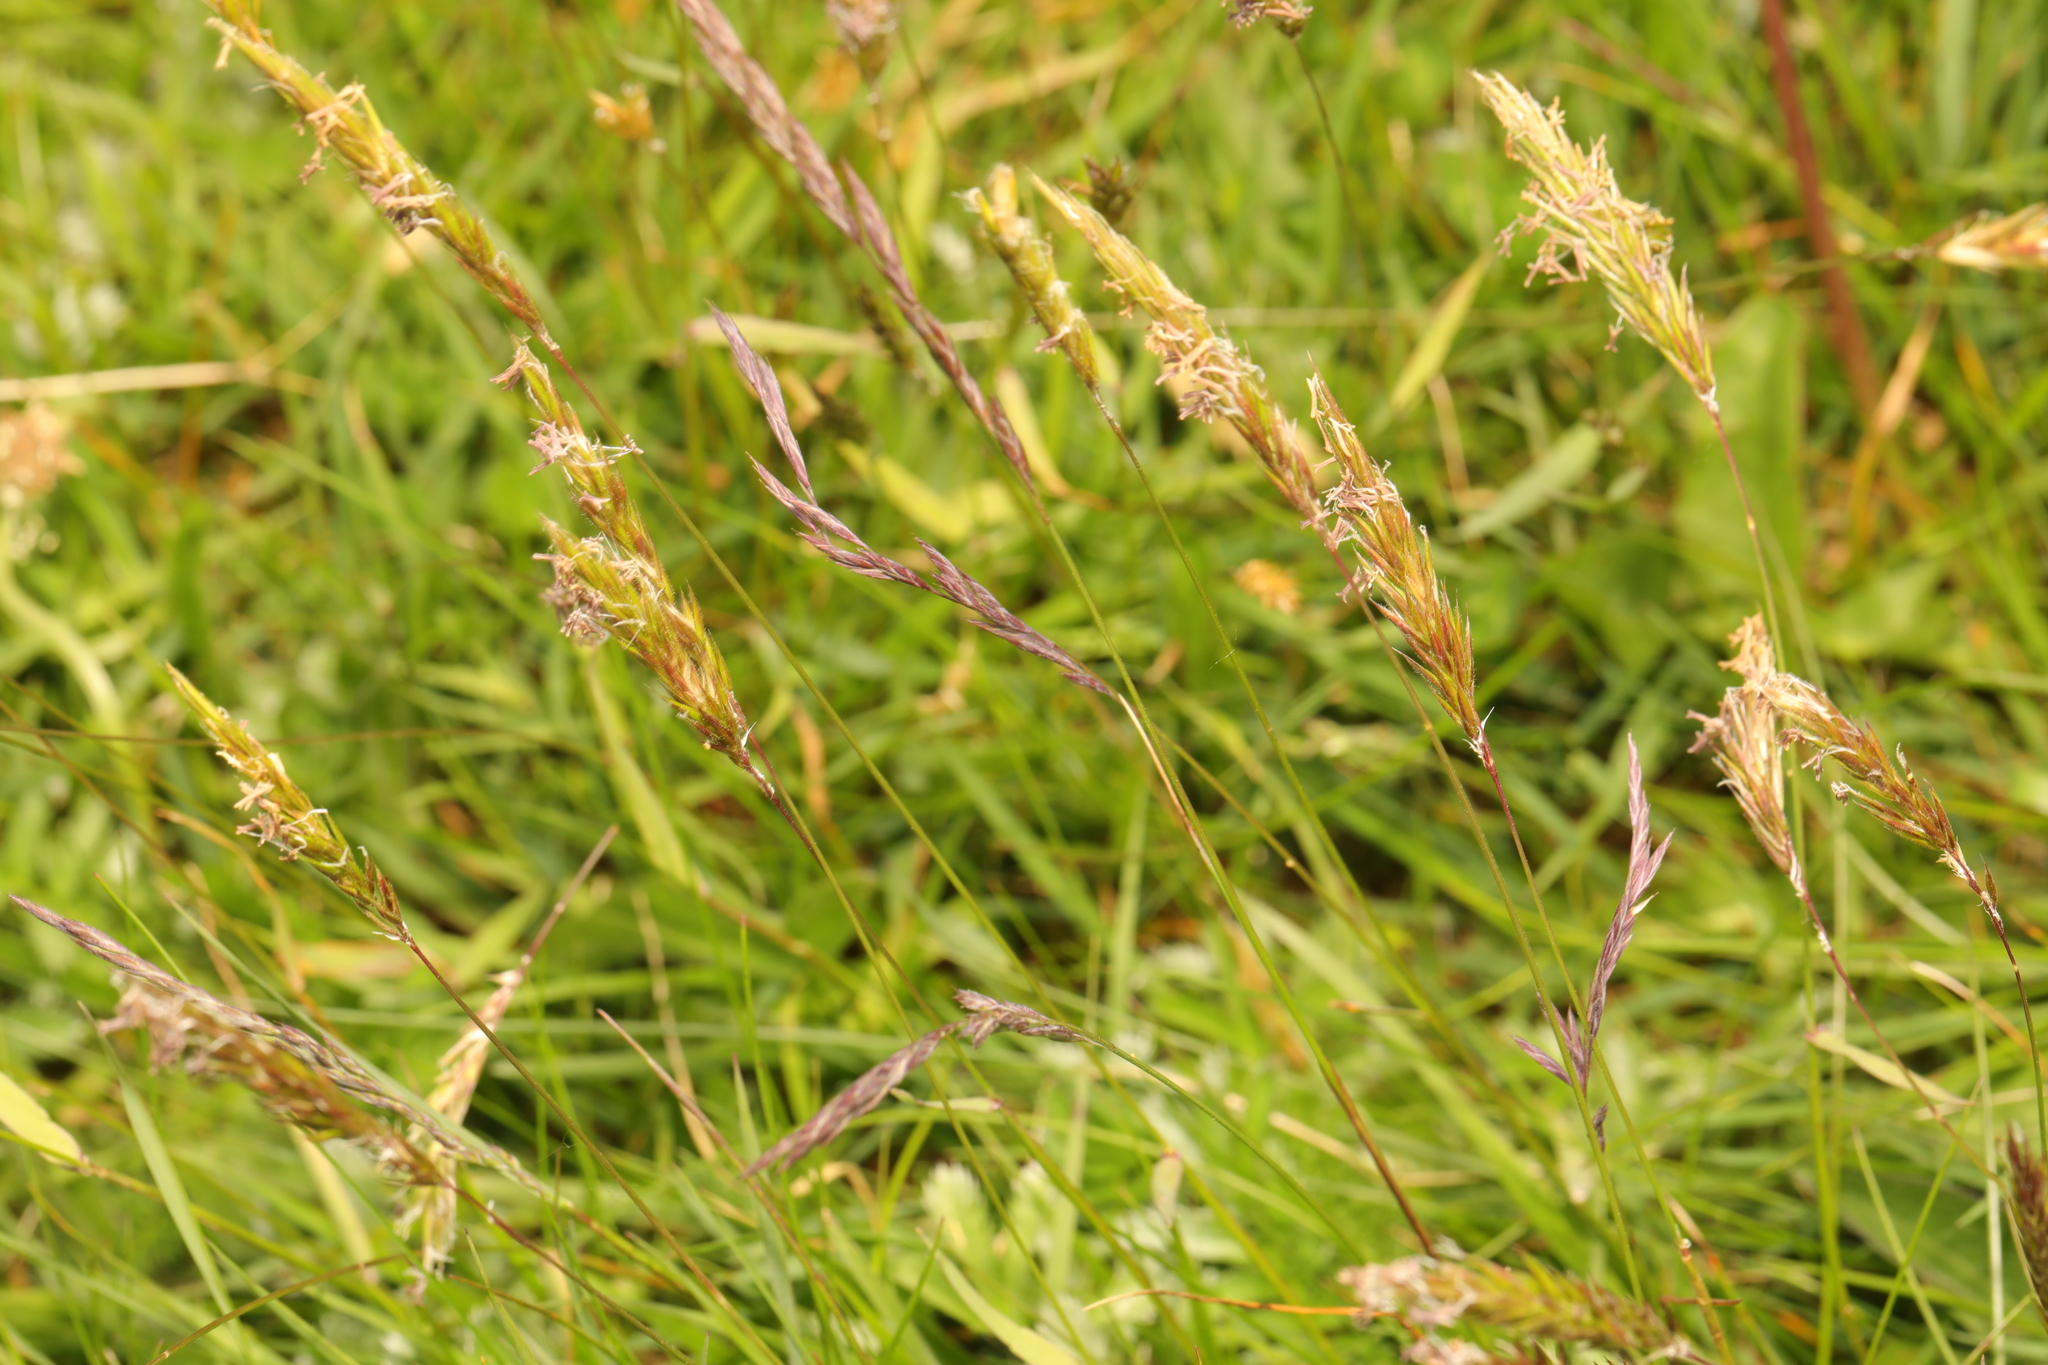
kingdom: Plantae
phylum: Tracheophyta
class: Liliopsida
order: Poales
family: Poaceae
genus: Anthoxanthum
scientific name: Anthoxanthum odoratum
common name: Sweet vernalgrass
